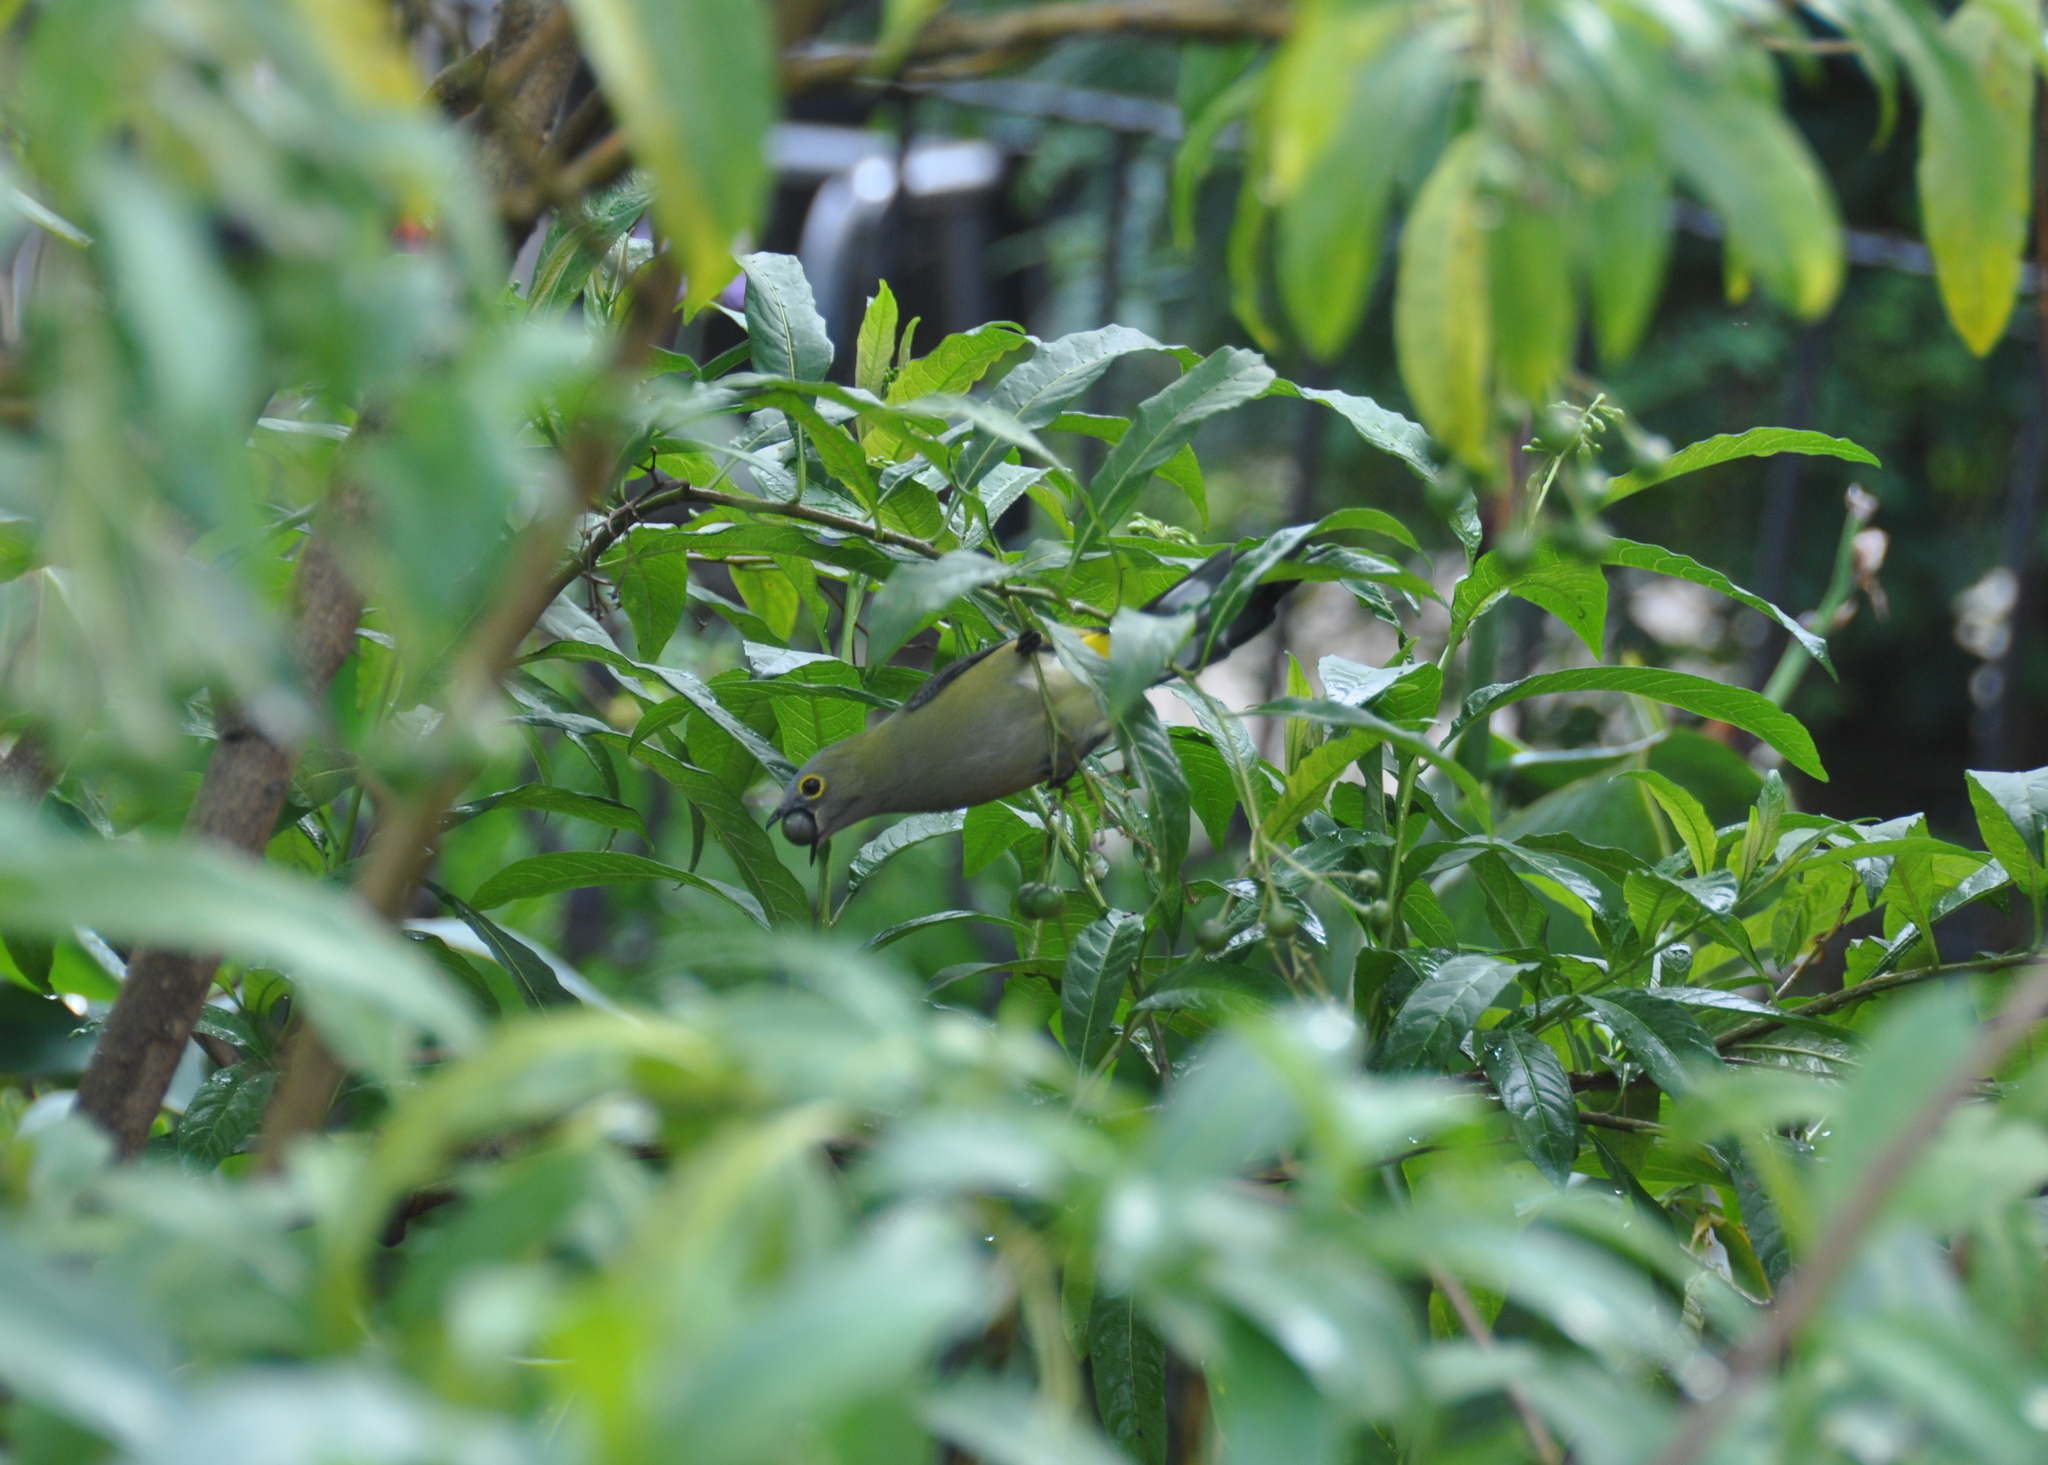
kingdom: Animalia
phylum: Chordata
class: Aves
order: Passeriformes
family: Ptilogonatidae
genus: Ptilogonys
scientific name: Ptilogonys caudatus
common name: Long-tailed silky-flycatcher
